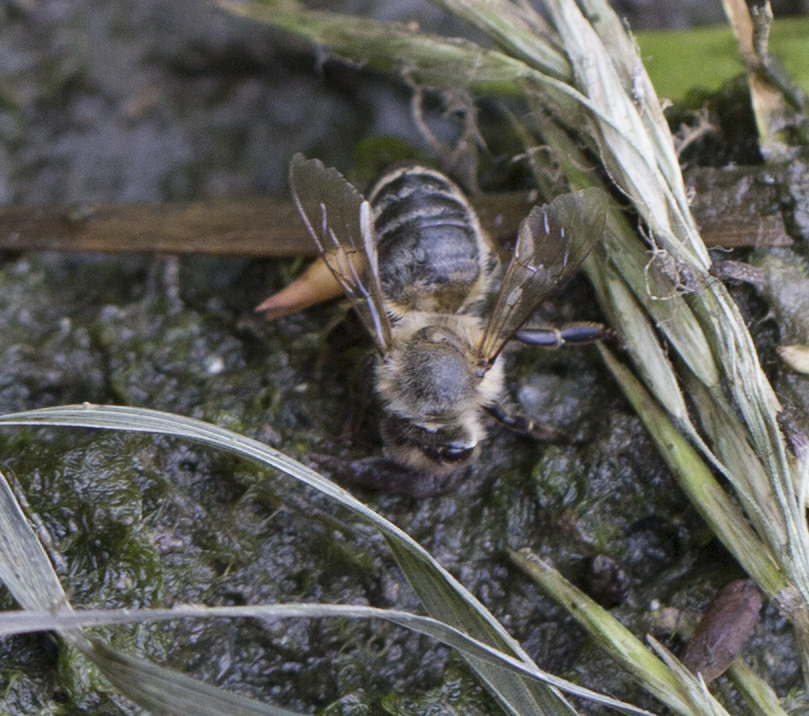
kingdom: Animalia
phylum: Arthropoda
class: Insecta
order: Hymenoptera
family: Apidae
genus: Apis
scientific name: Apis mellifera
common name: Honey bee
